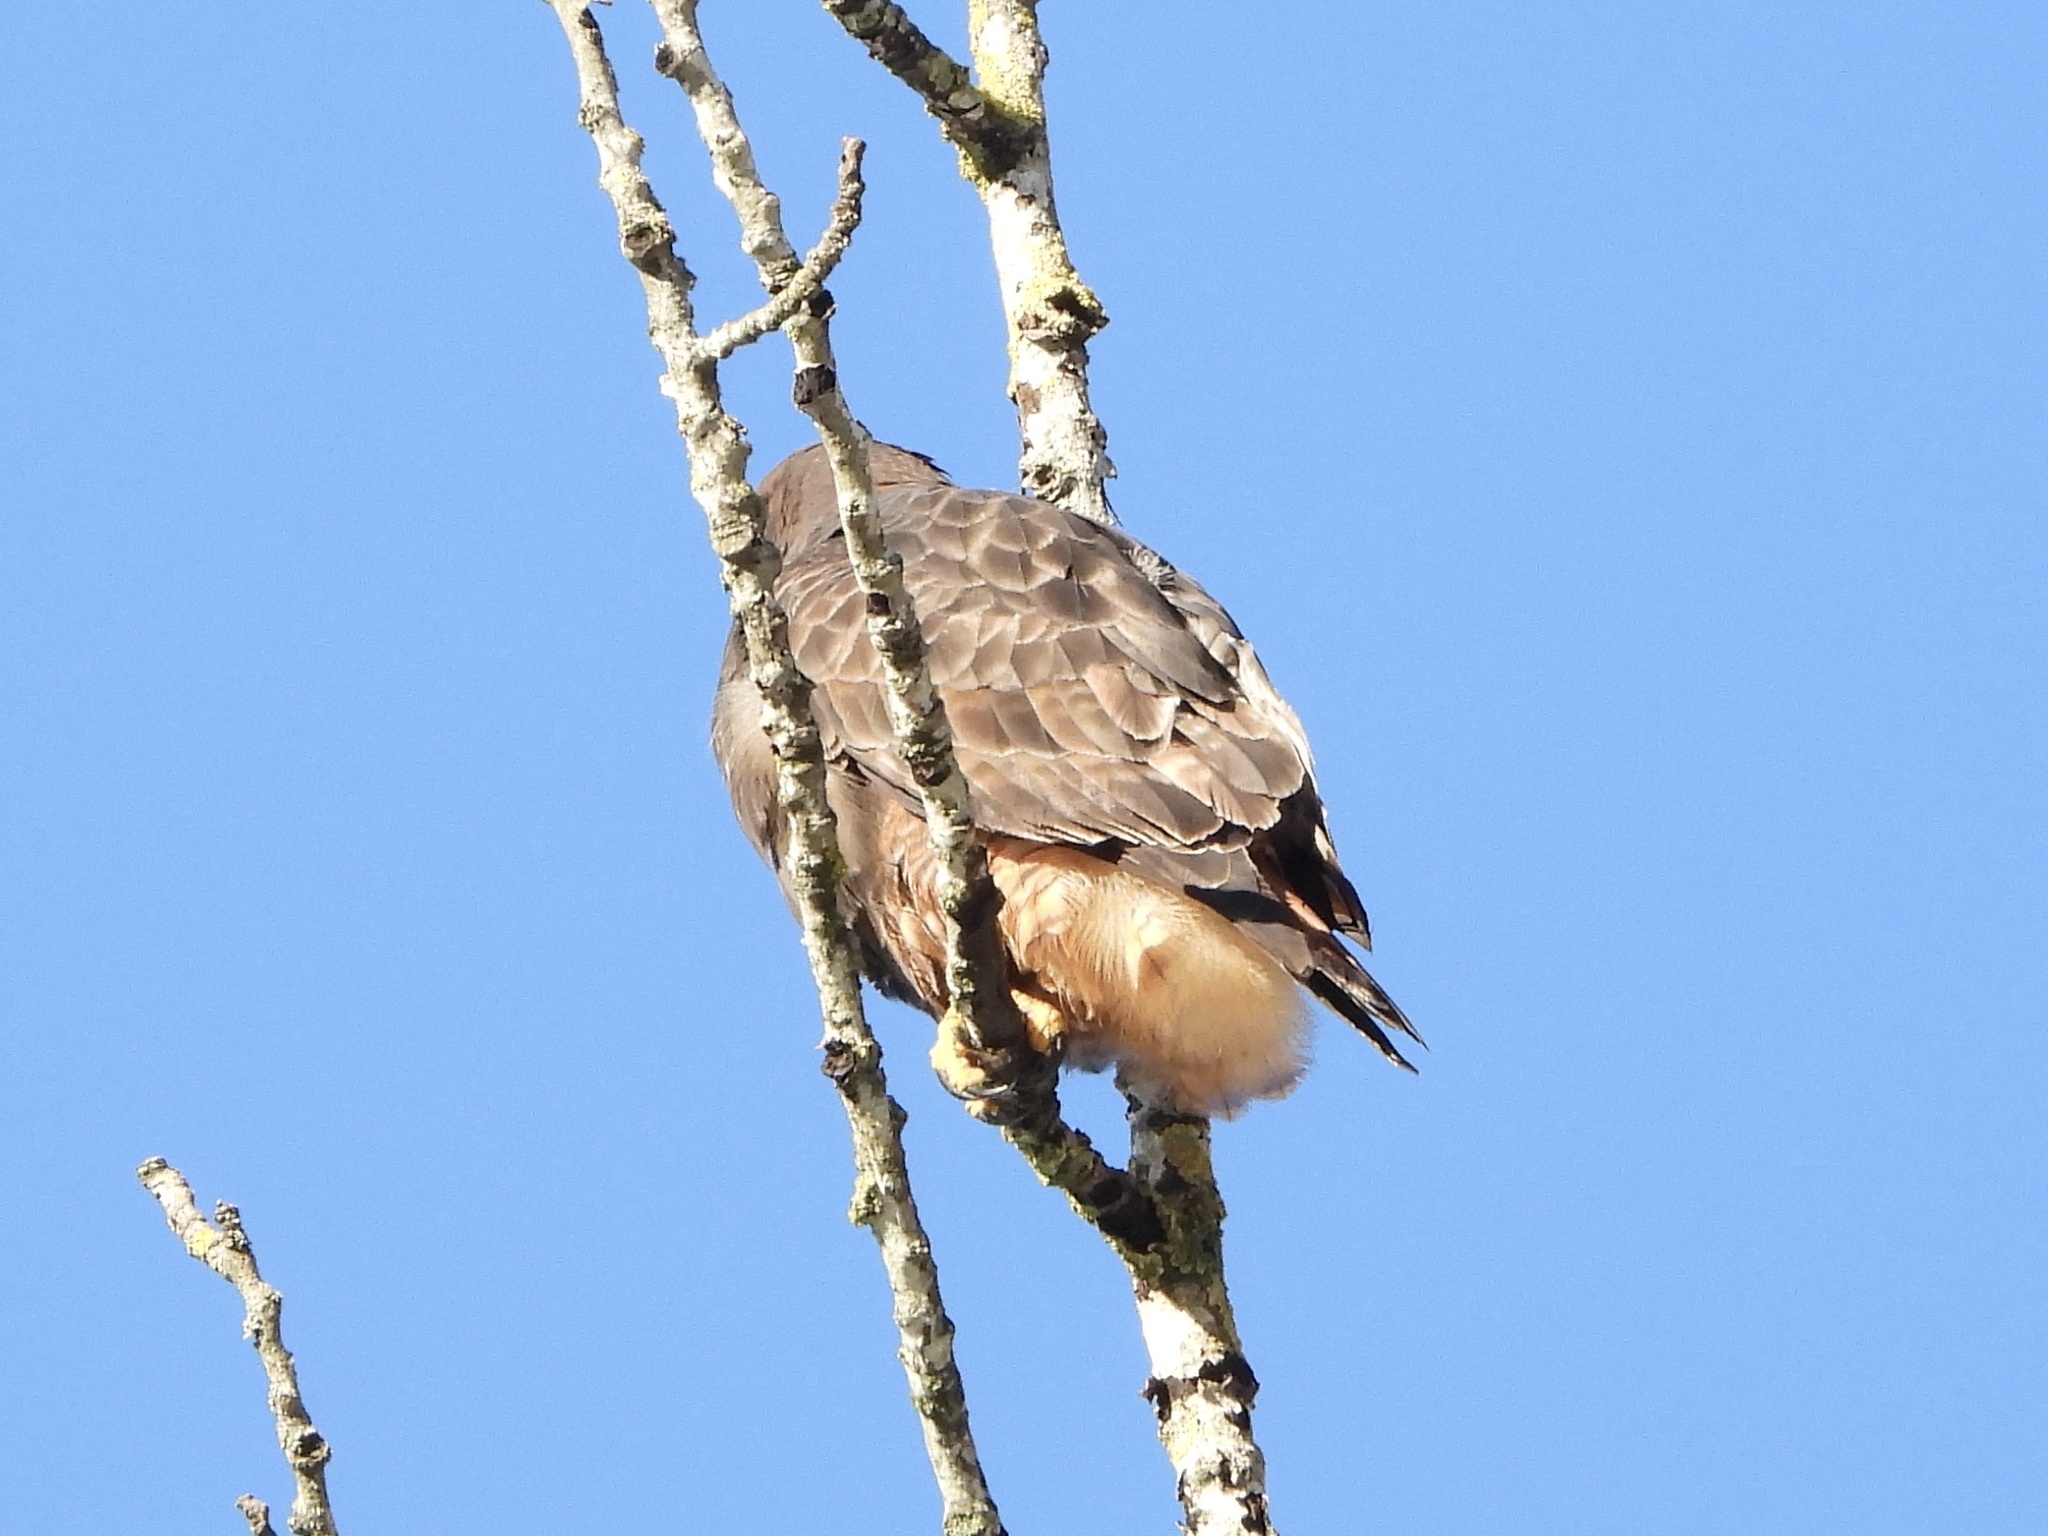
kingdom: Animalia
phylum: Chordata
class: Aves
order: Accipitriformes
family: Accipitridae
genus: Buteo
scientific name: Buteo jamaicensis
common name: Red-tailed hawk
